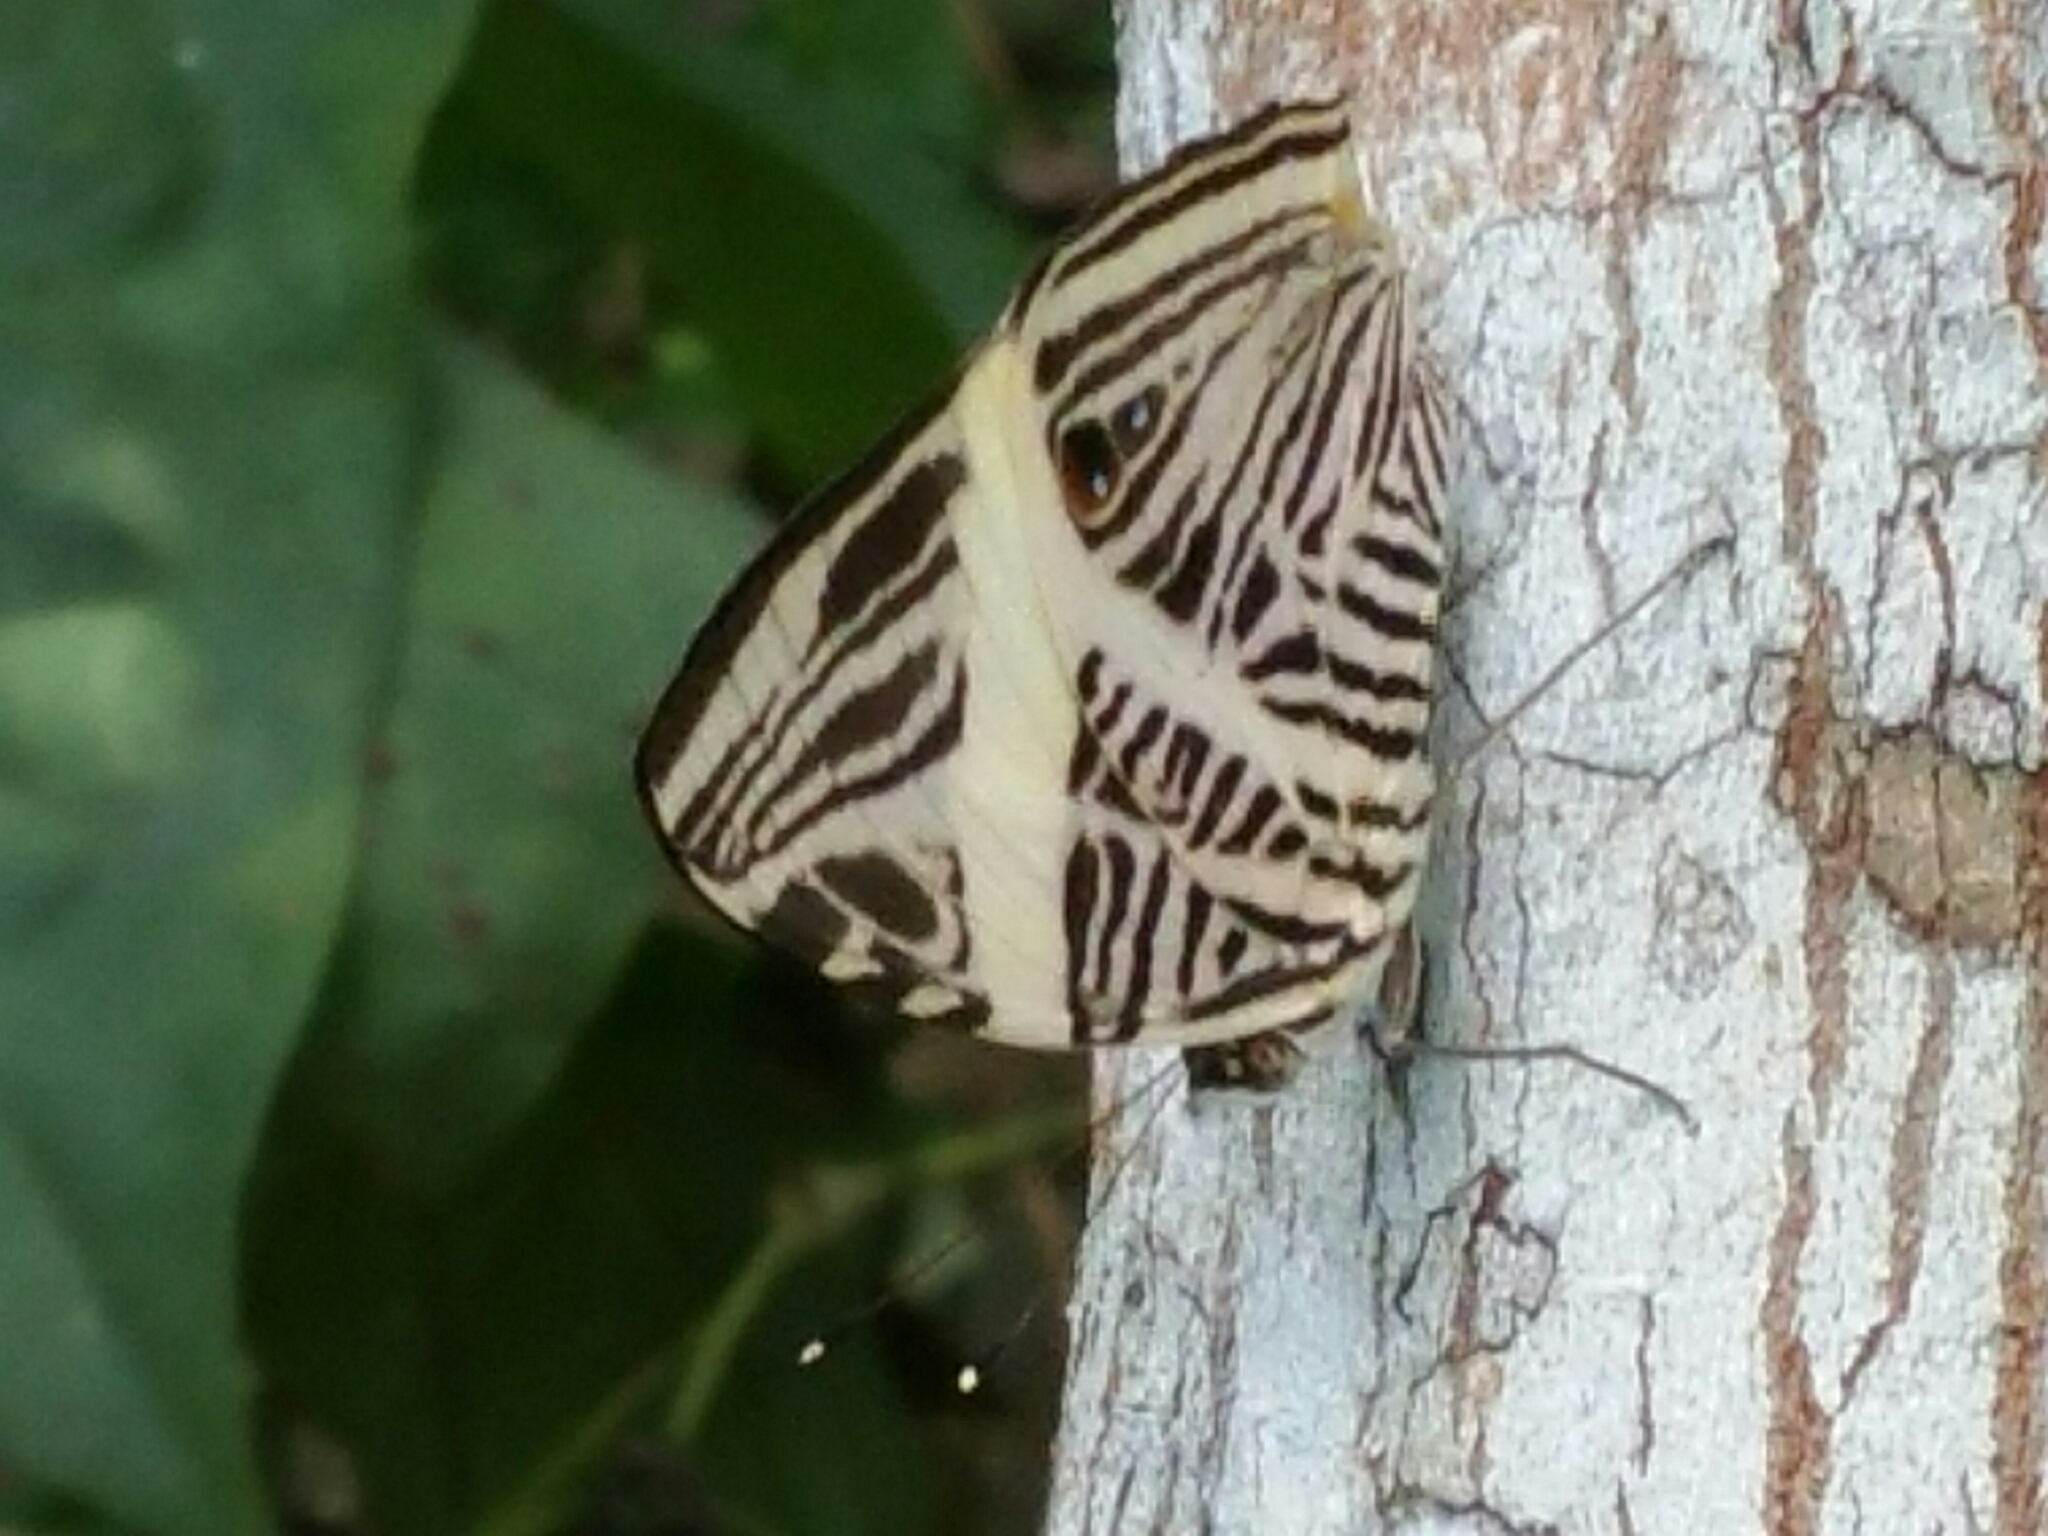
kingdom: Animalia
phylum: Arthropoda
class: Insecta
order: Lepidoptera
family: Nymphalidae
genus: Colobura
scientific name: Colobura dirce
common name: Dirce beauty
